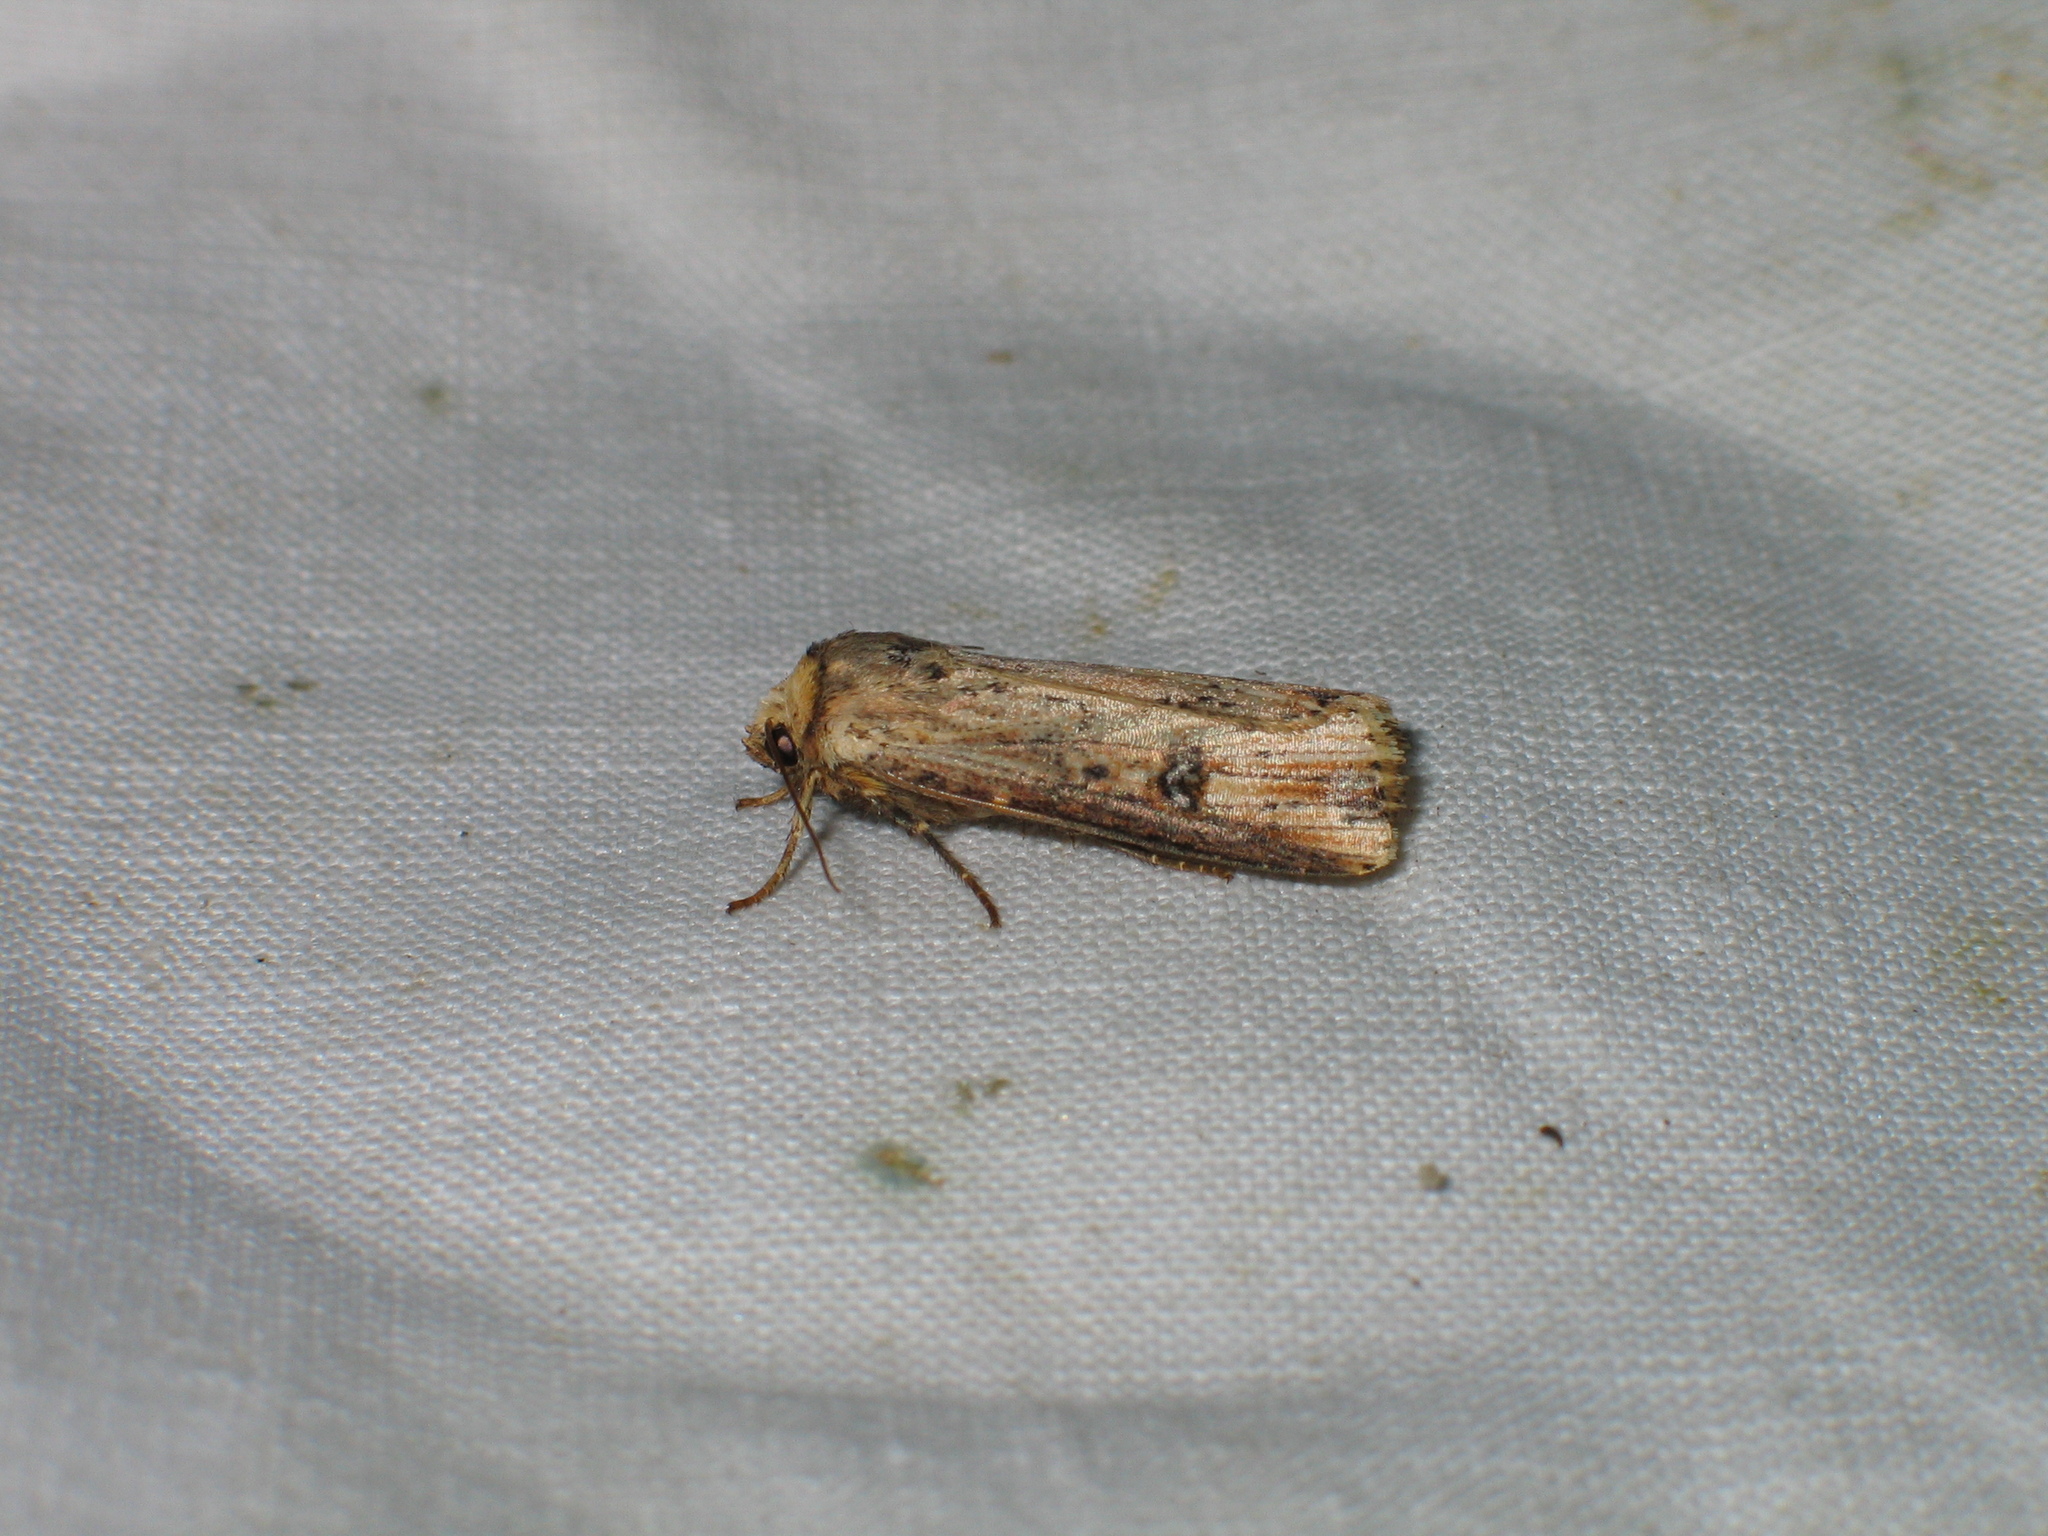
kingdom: Animalia
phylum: Arthropoda
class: Insecta
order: Lepidoptera
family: Noctuidae
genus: Axylia
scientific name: Axylia putris
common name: Flame
